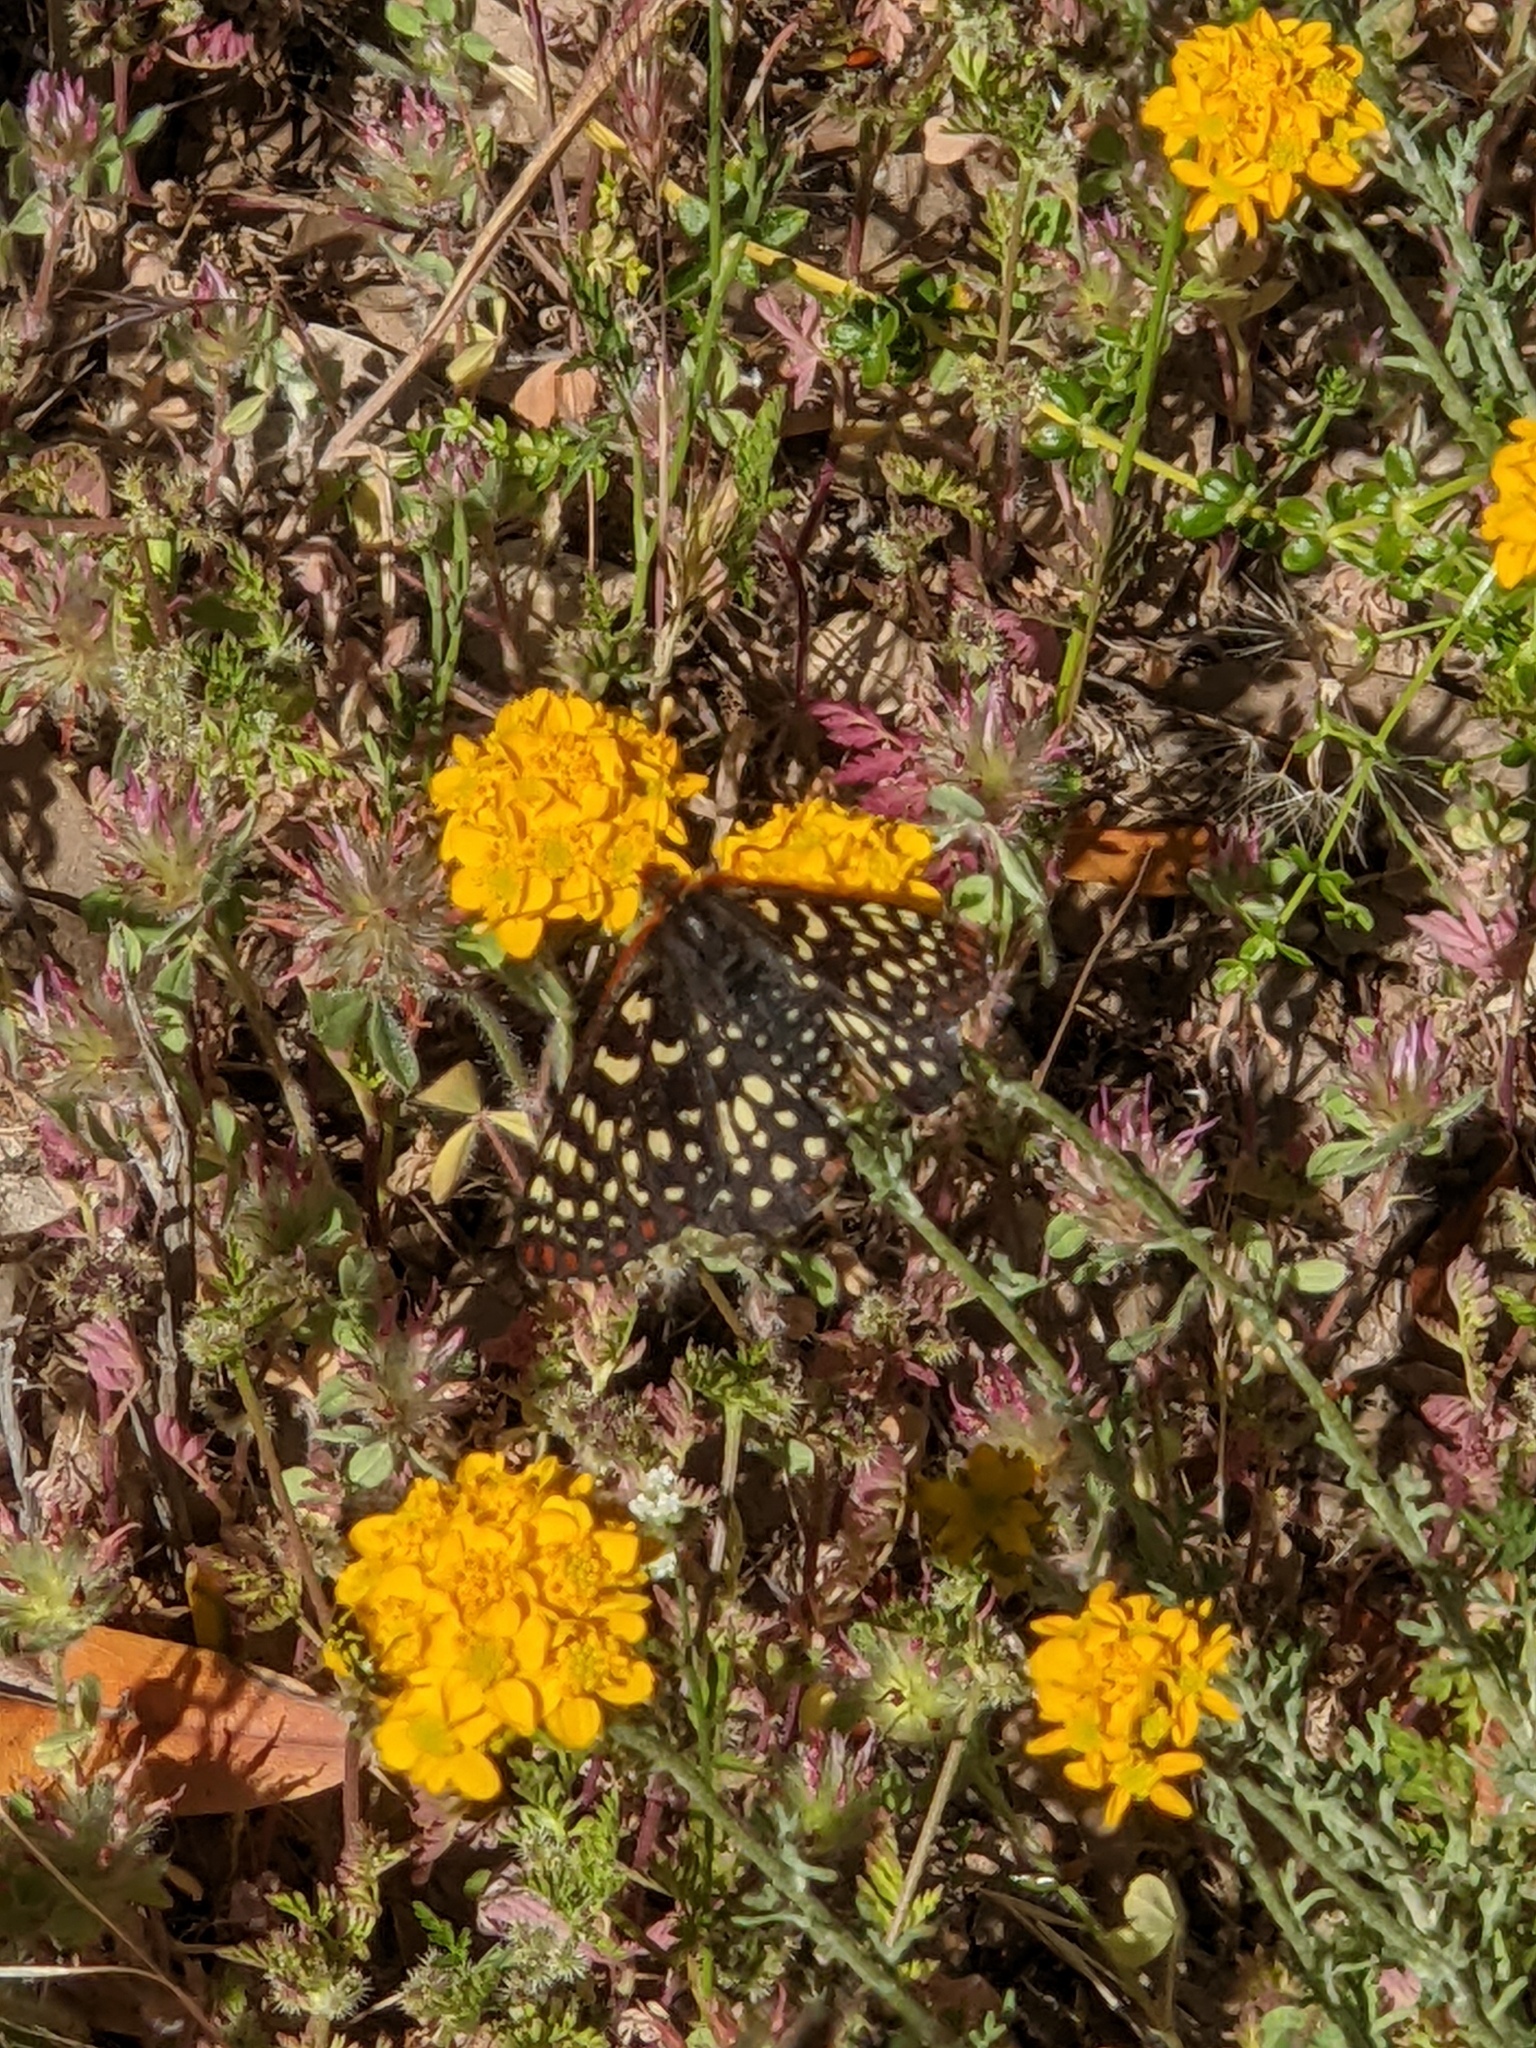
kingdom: Animalia
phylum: Arthropoda
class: Insecta
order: Lepidoptera
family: Nymphalidae
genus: Occidryas
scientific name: Occidryas chalcedona
